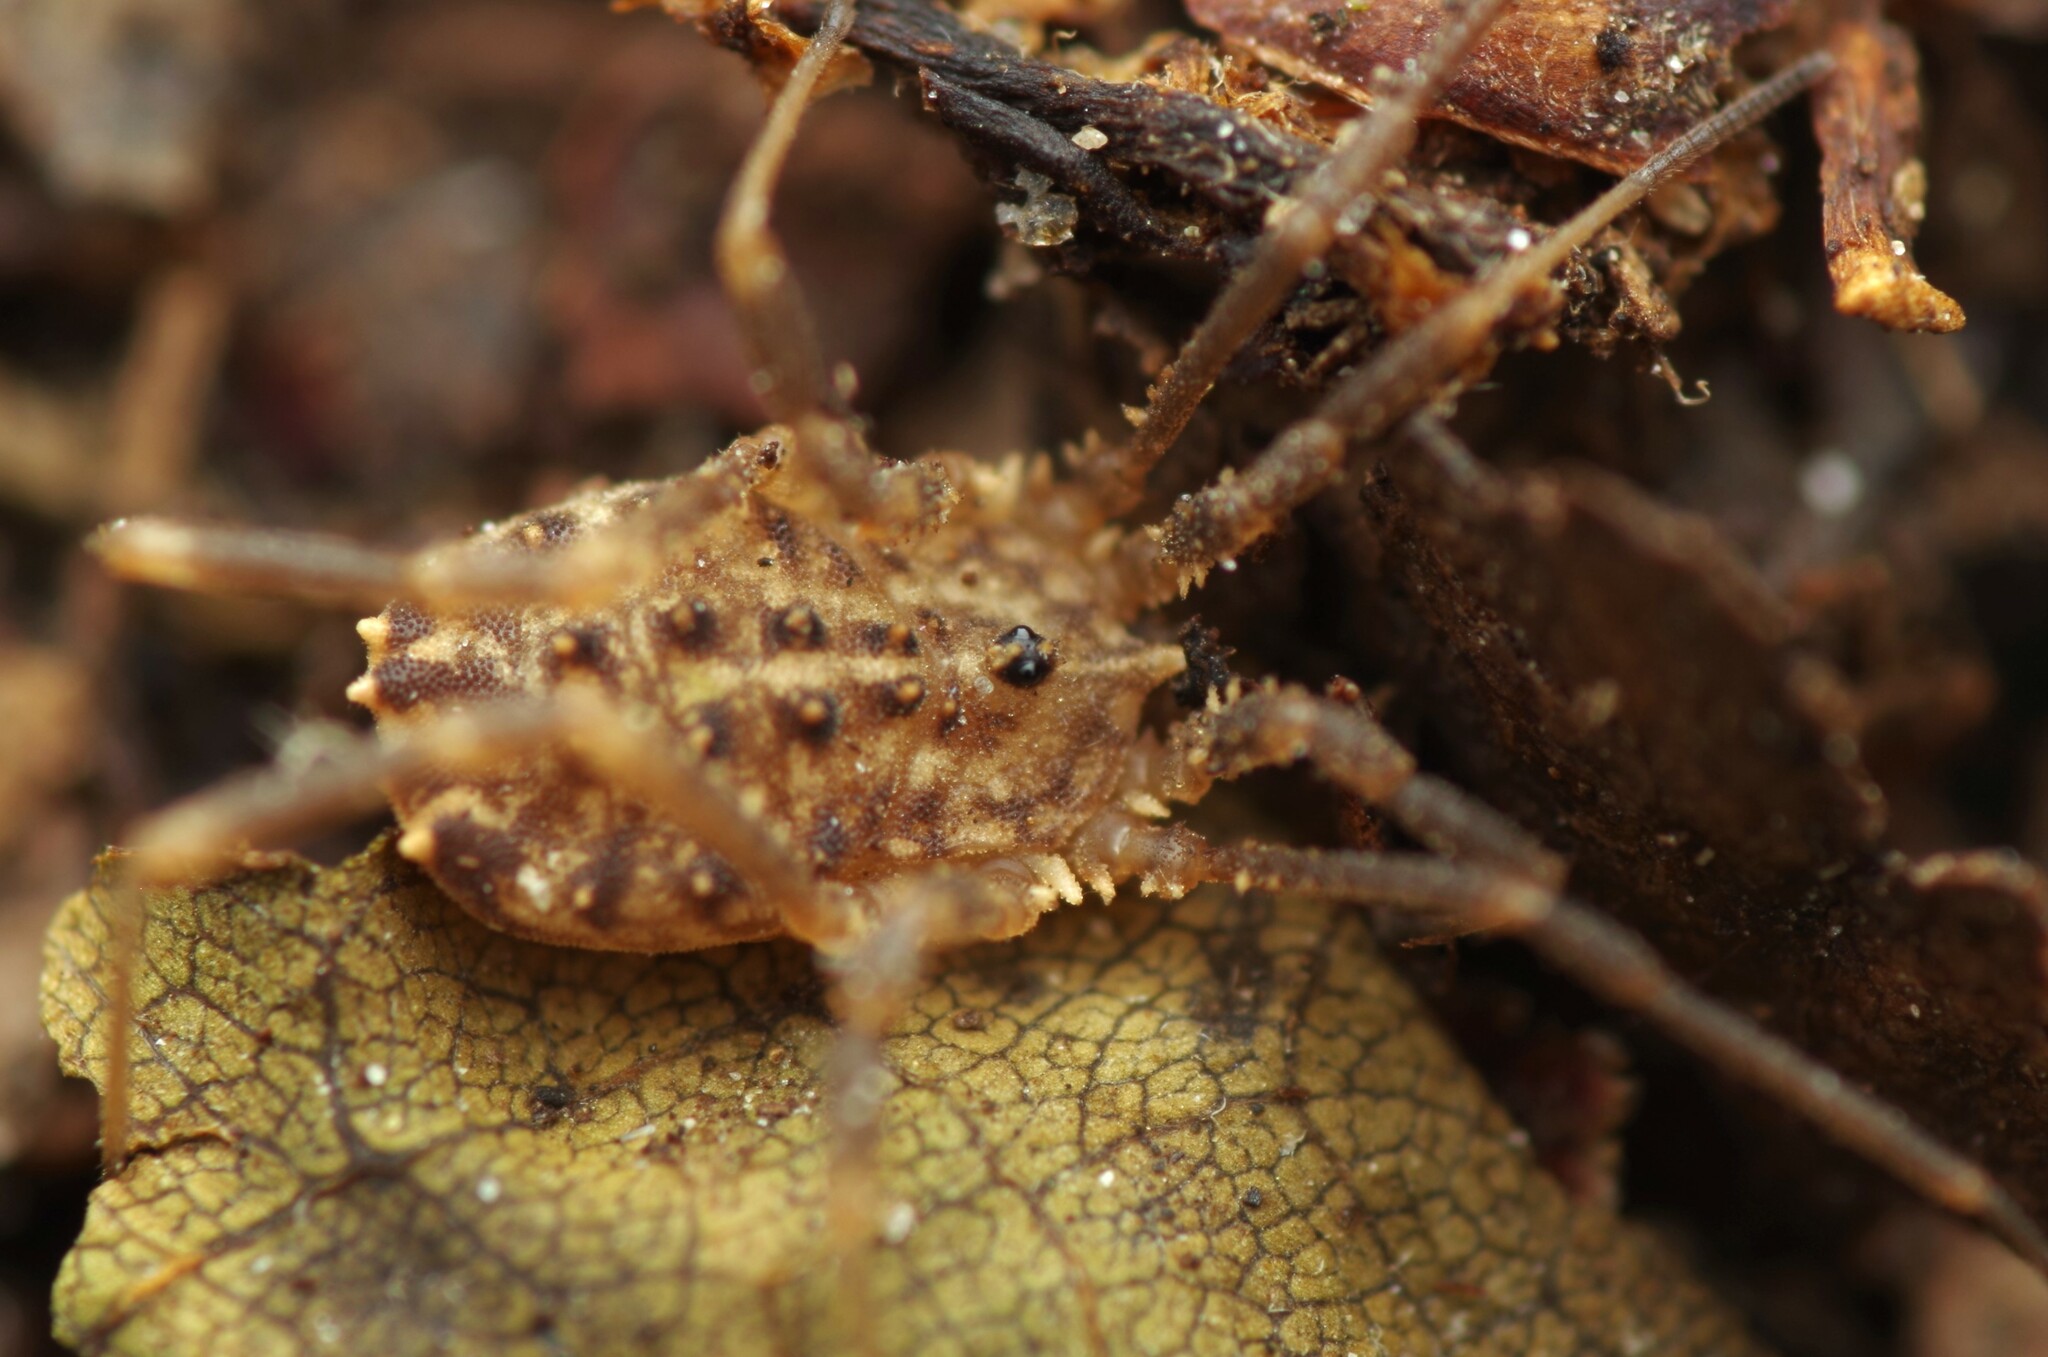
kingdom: Animalia
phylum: Arthropoda
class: Arachnida
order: Opiliones
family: Sclerosomatidae
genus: Homalenotus
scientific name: Homalenotus quadridentatus
